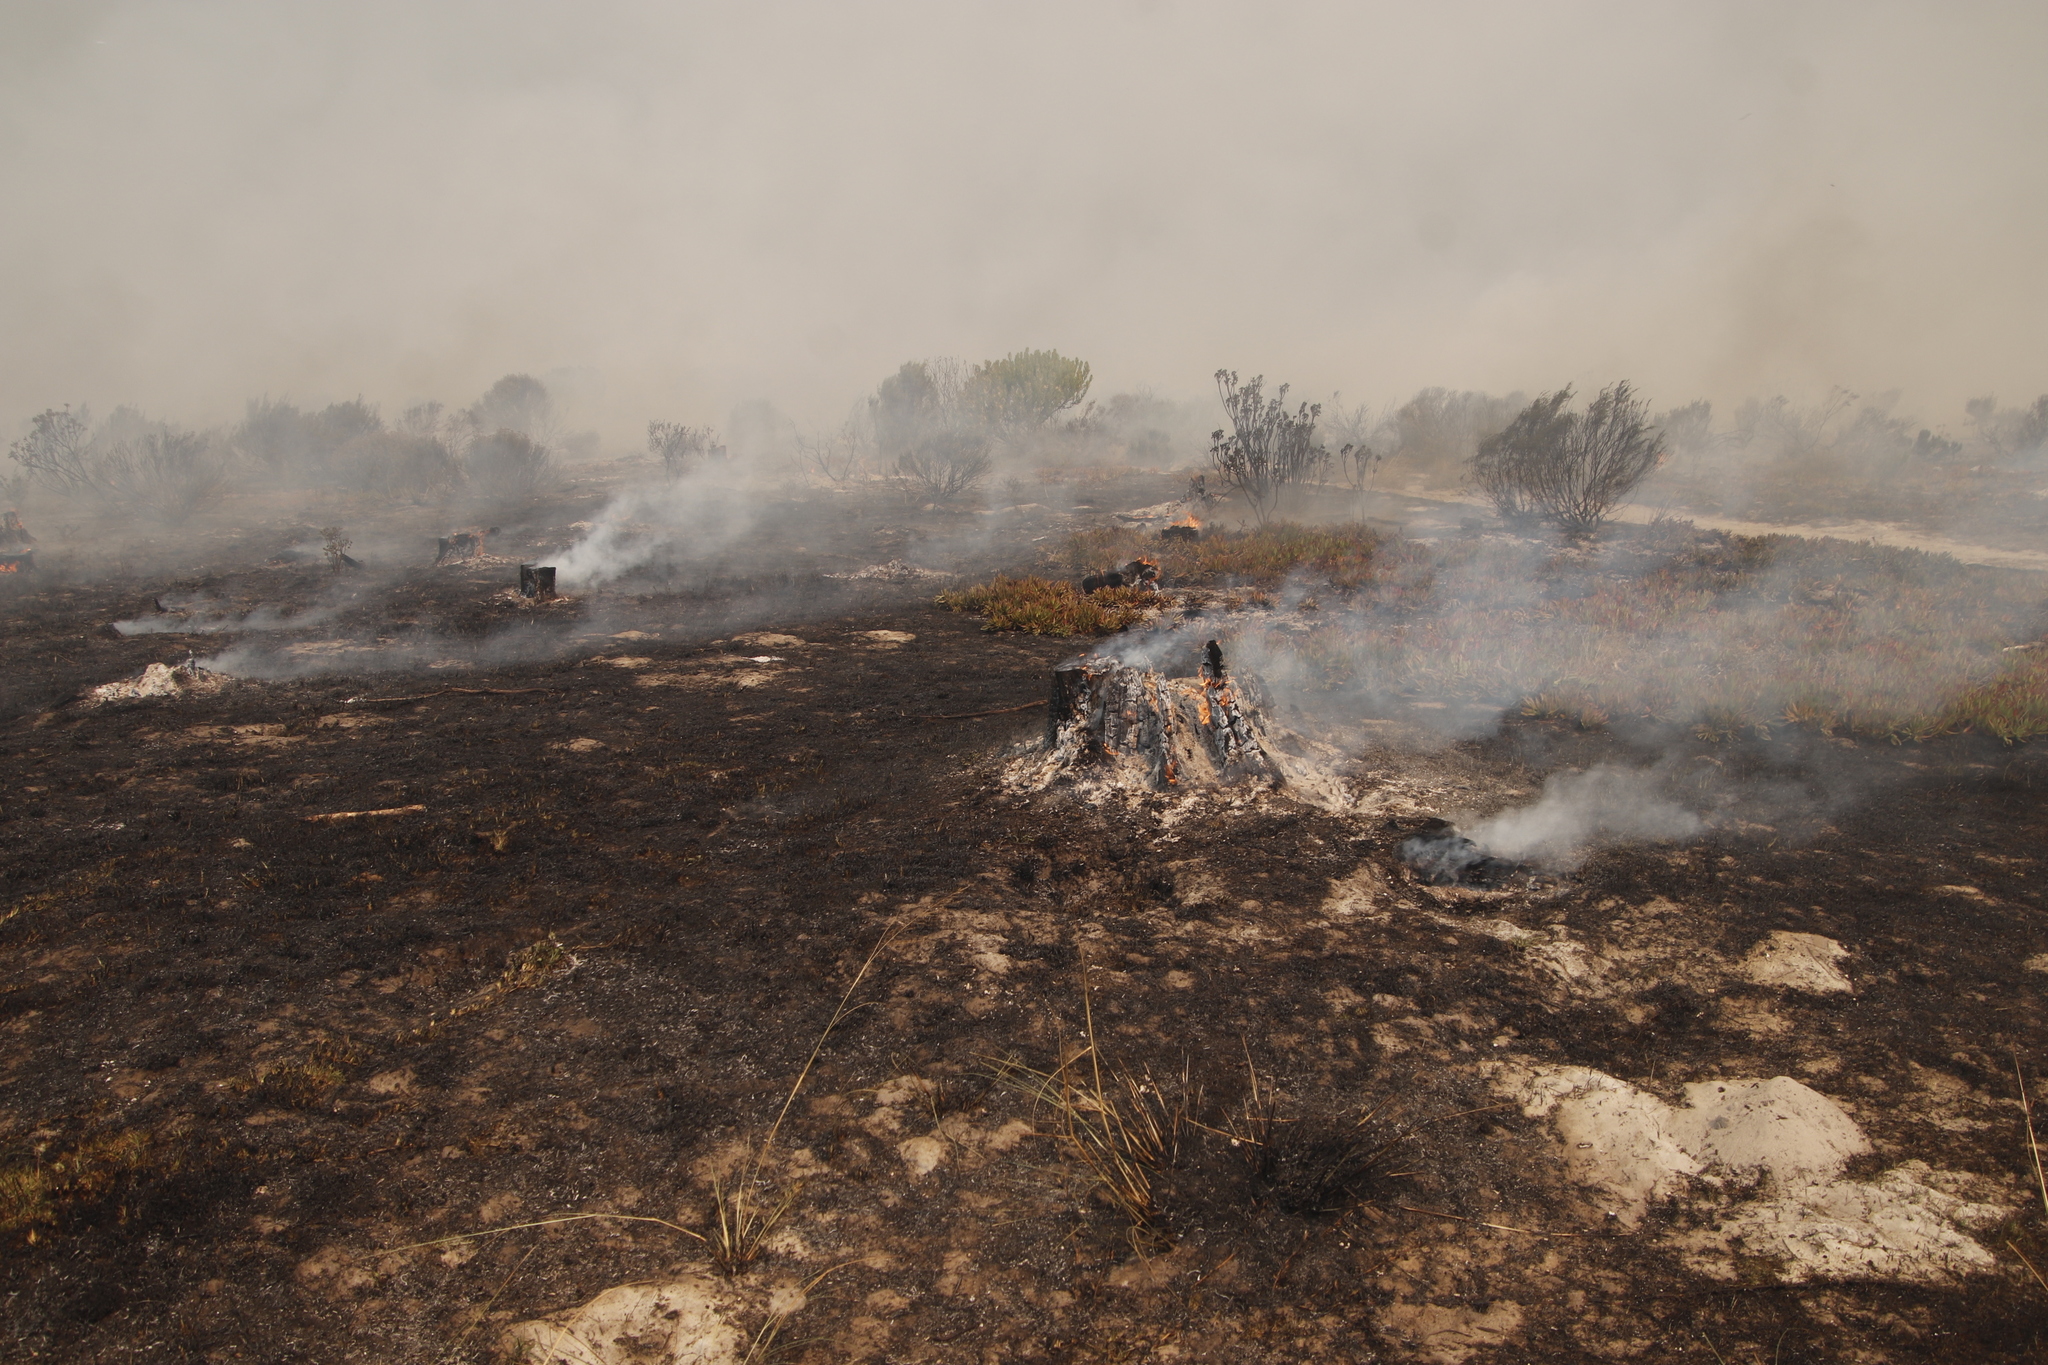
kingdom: Plantae
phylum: Tracheophyta
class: Pinopsida
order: Pinales
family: Pinaceae
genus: Pinus
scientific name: Pinus radiata
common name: Monterey pine
